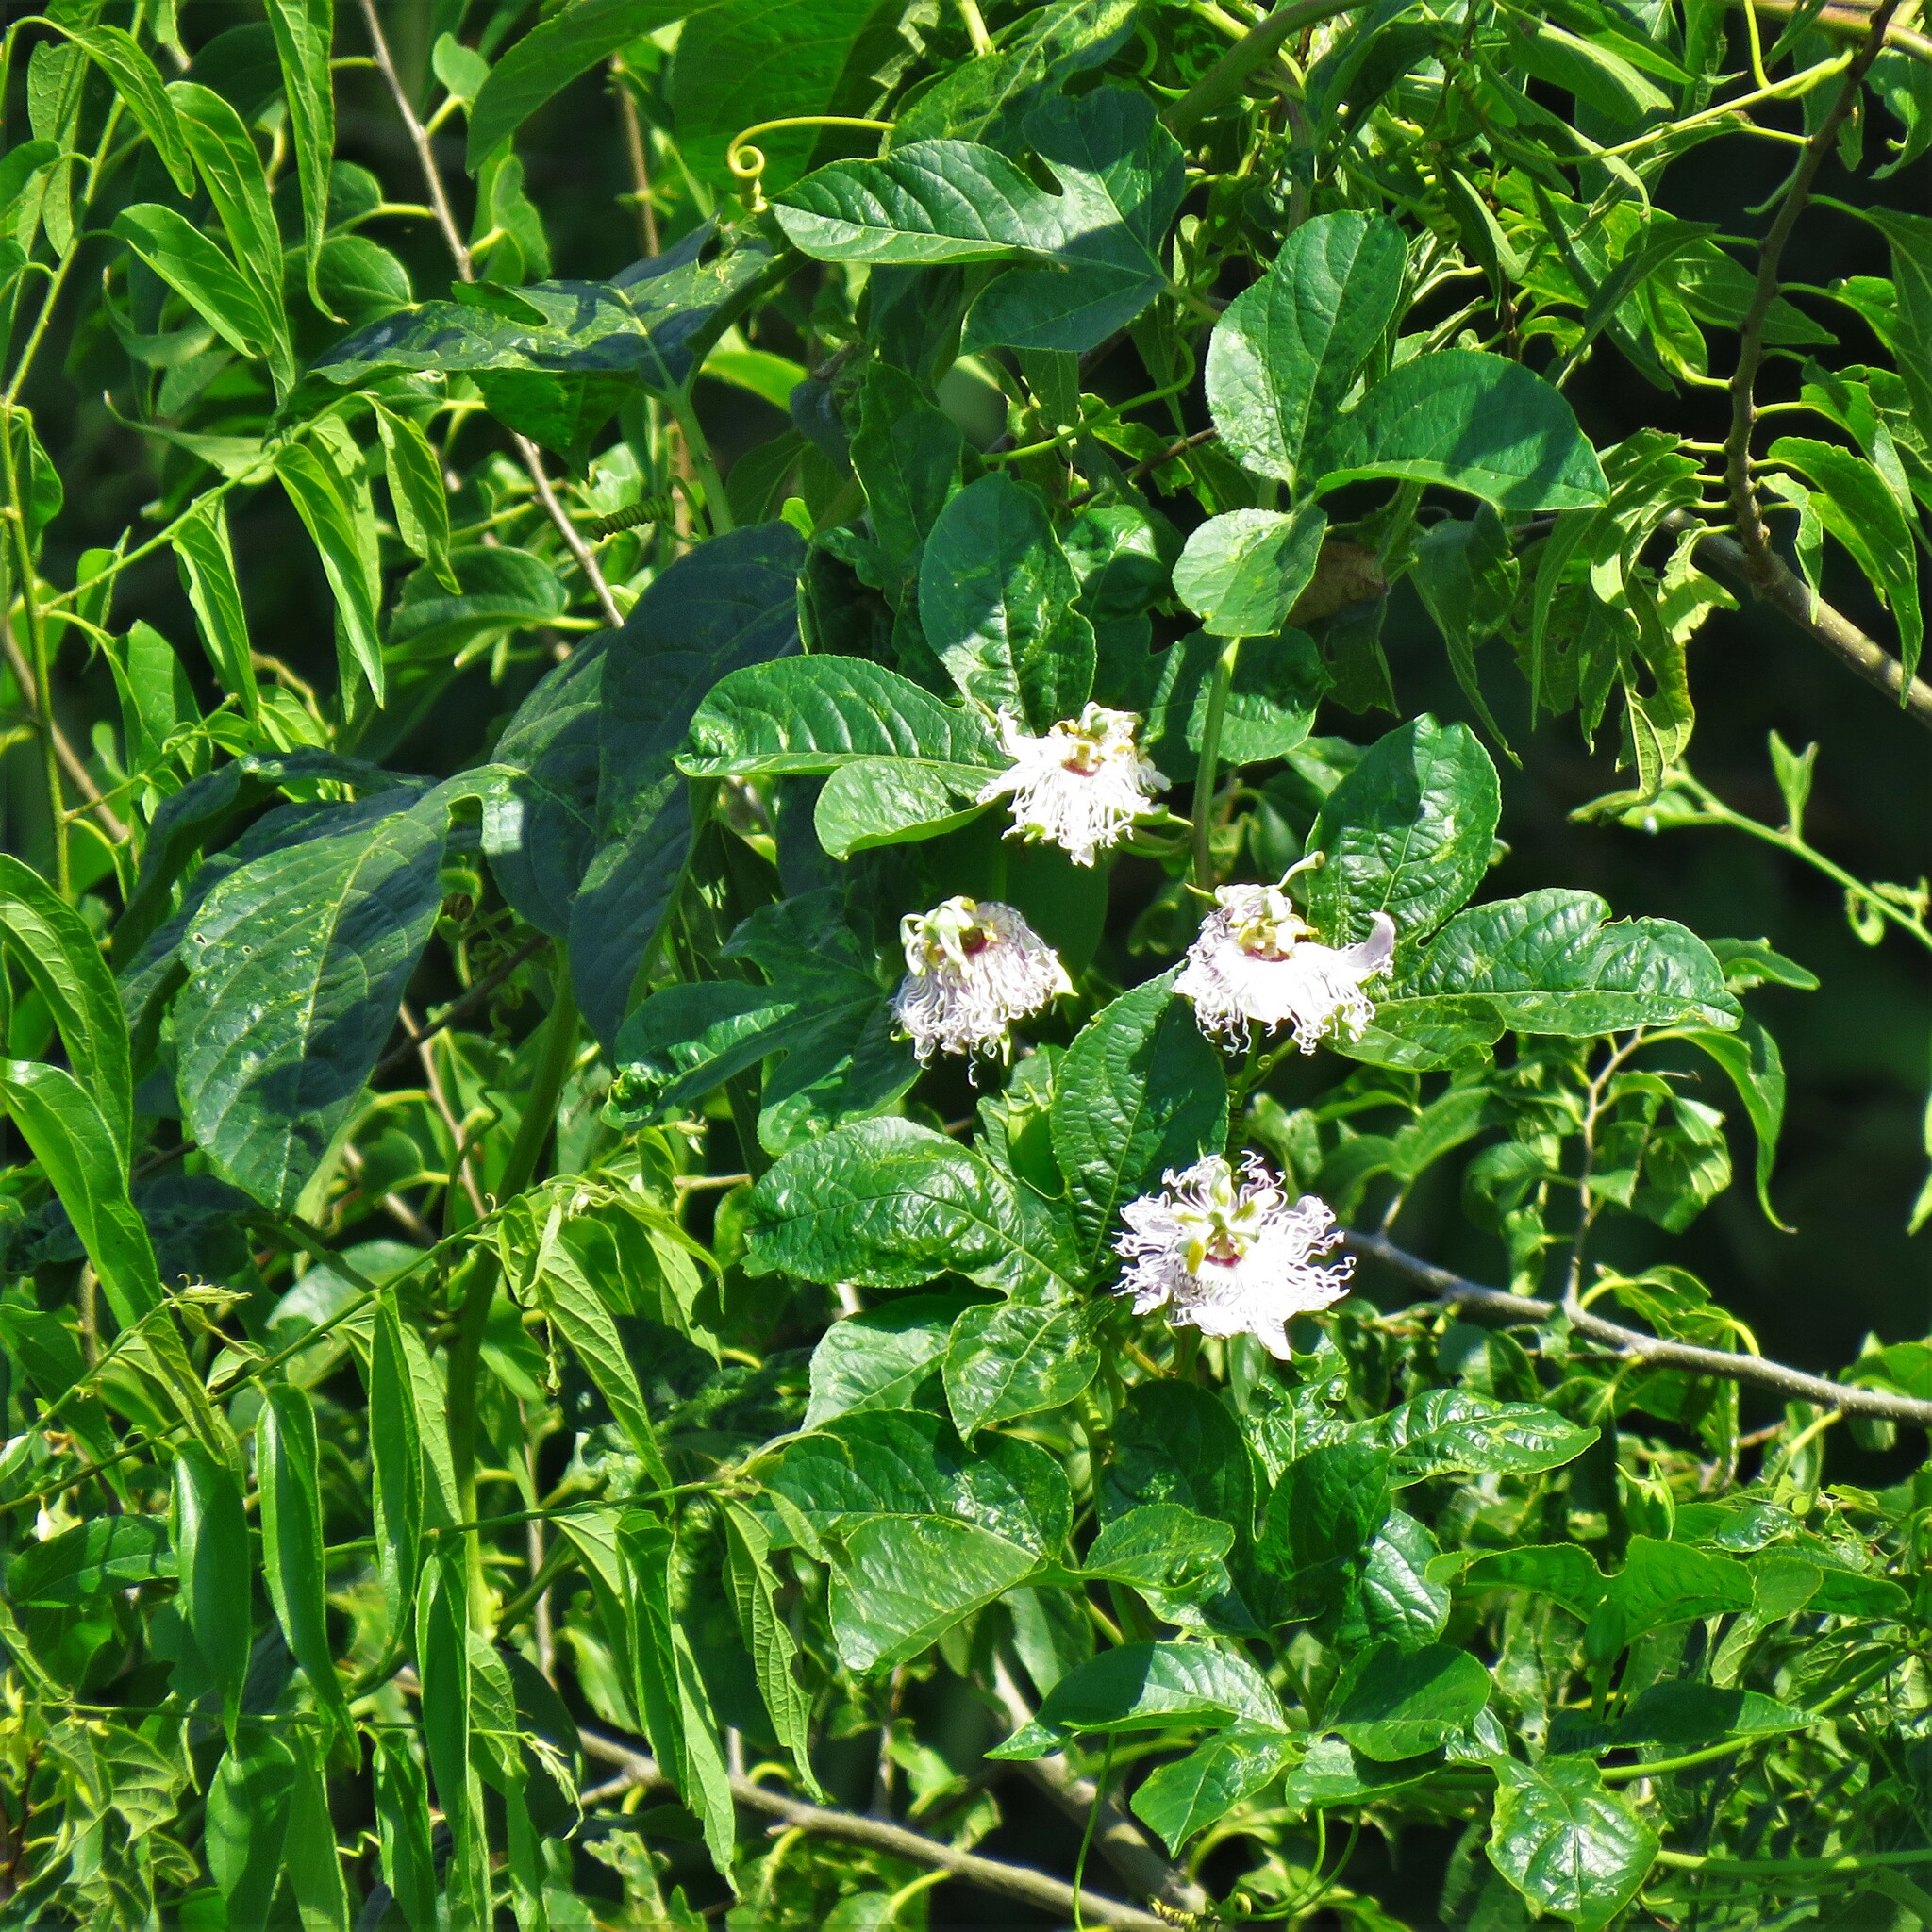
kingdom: Plantae
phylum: Tracheophyta
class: Magnoliopsida
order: Malpighiales
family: Passifloraceae
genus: Passiflora
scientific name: Passiflora incarnata
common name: Apricot-vine
